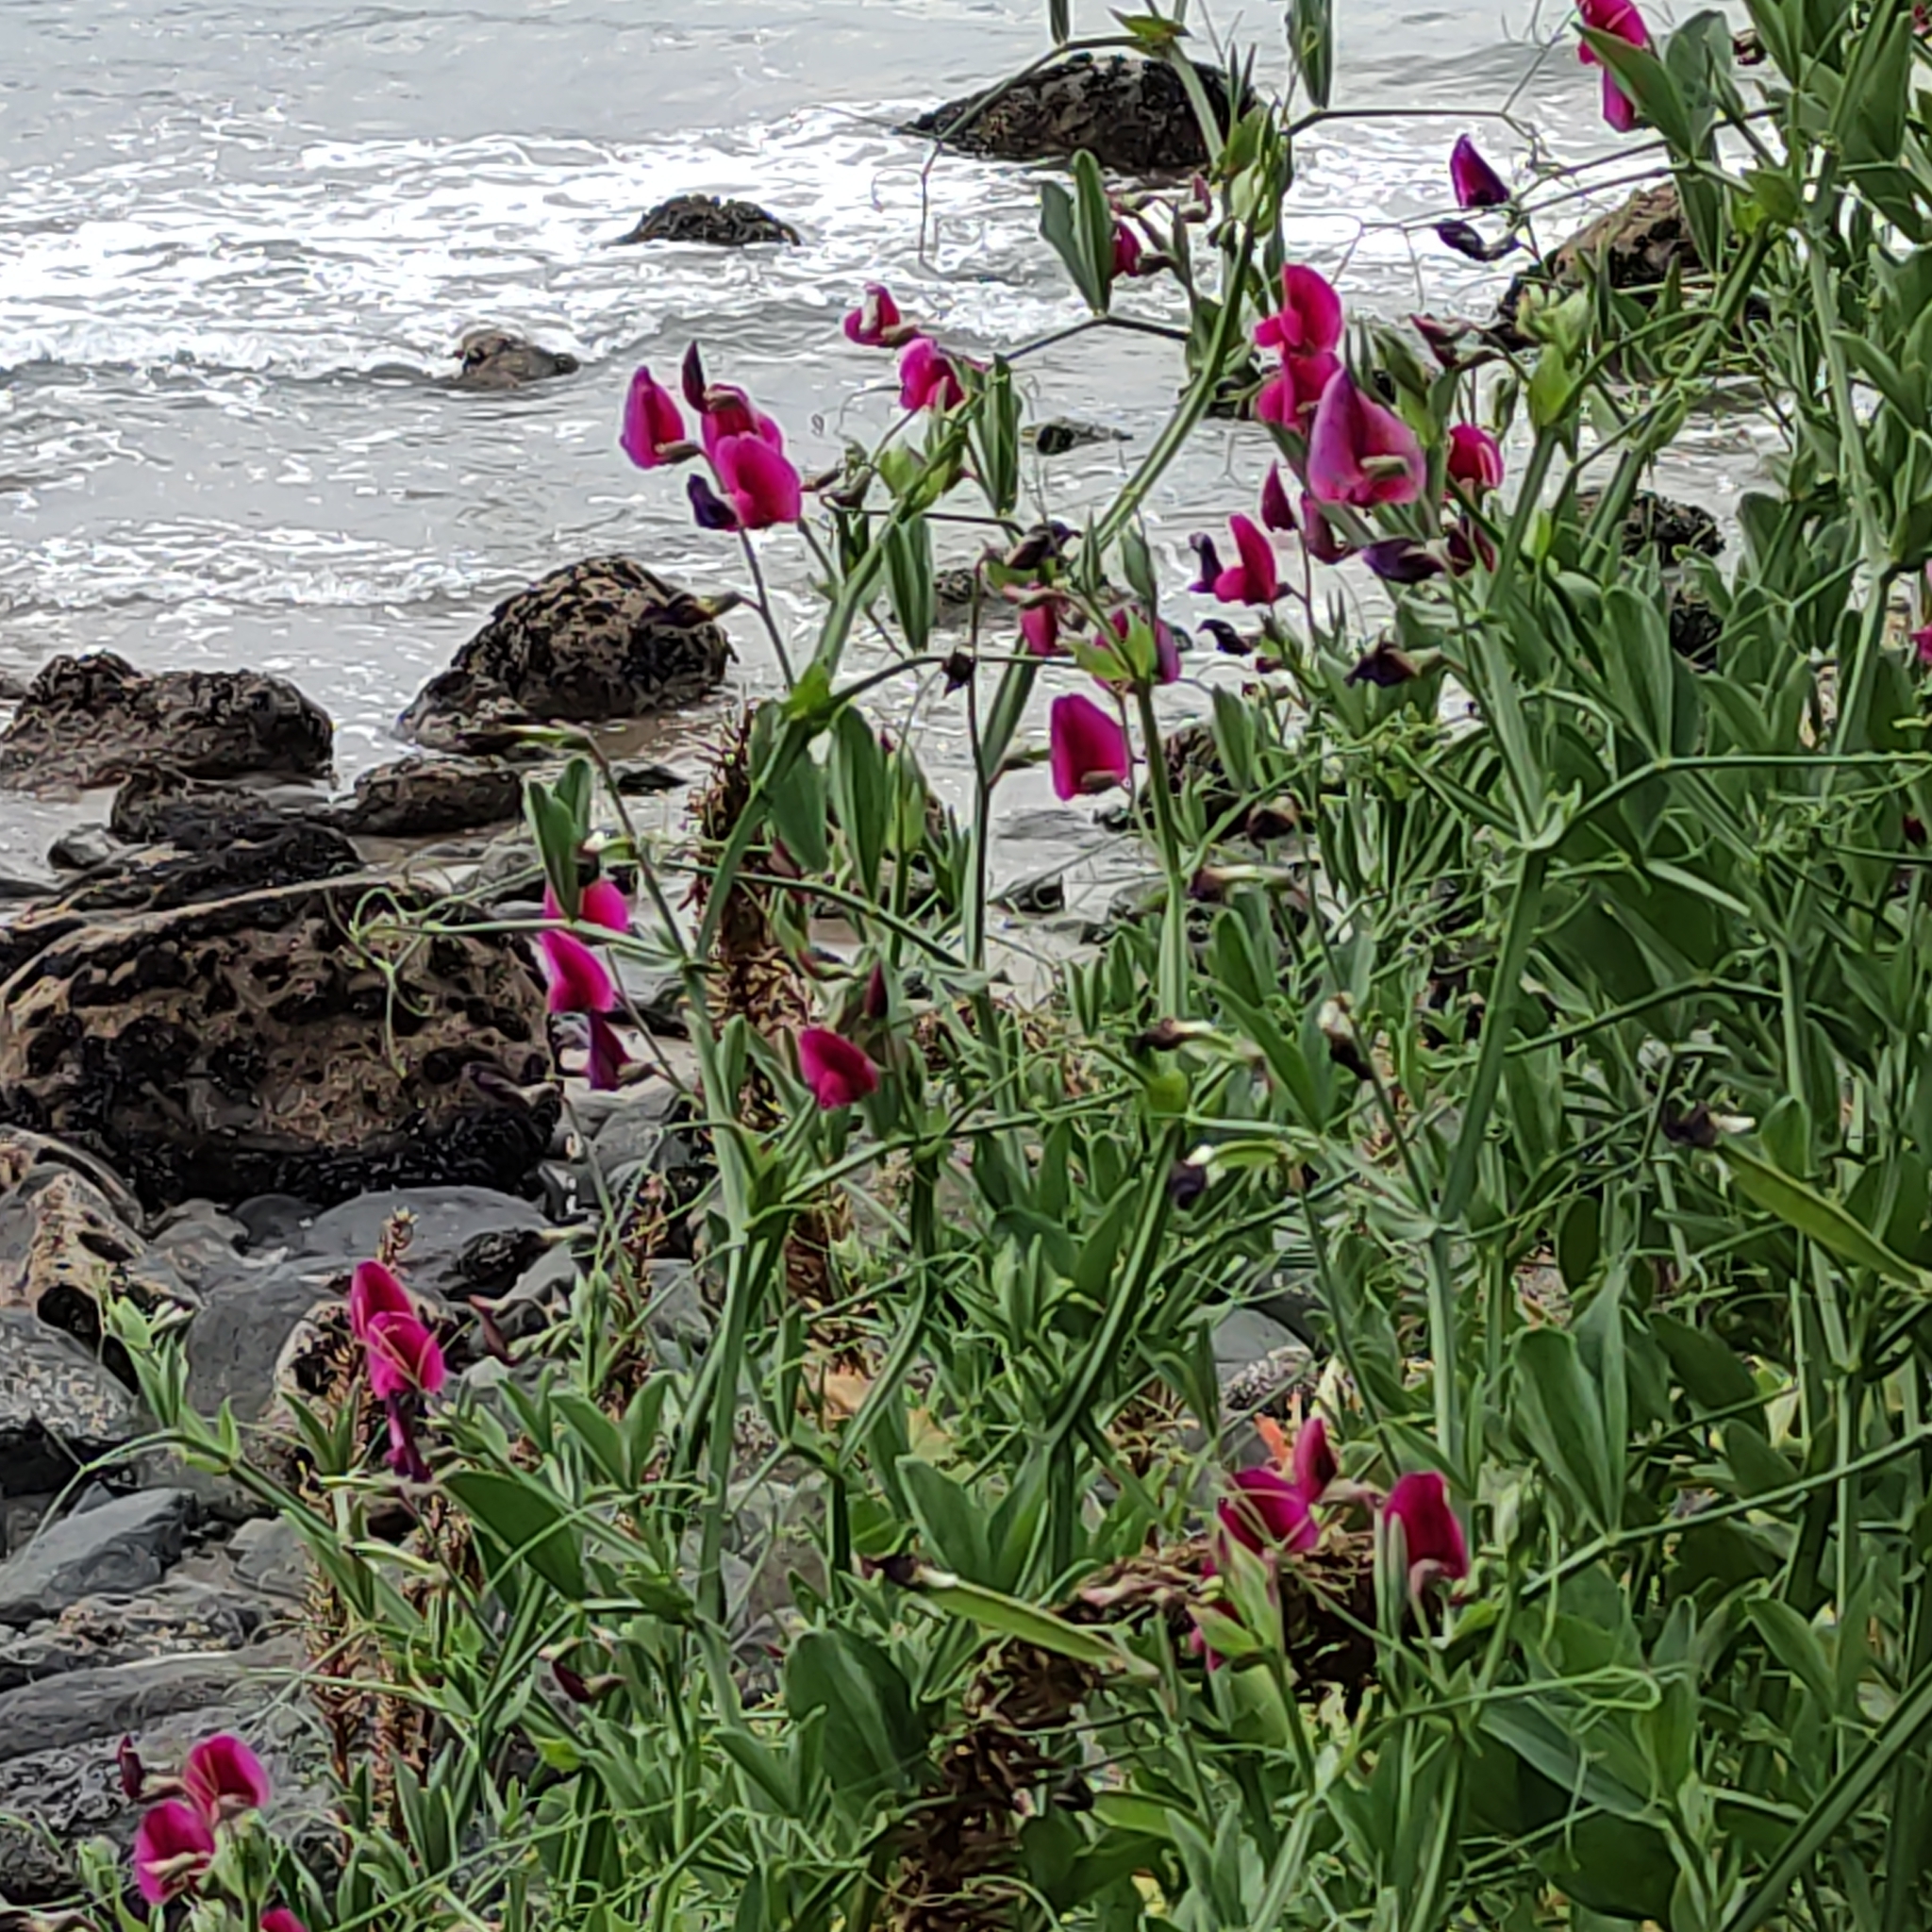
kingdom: Plantae
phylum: Tracheophyta
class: Magnoliopsida
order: Fabales
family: Fabaceae
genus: Lathyrus
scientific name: Lathyrus tingitanus
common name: Tangier pea
